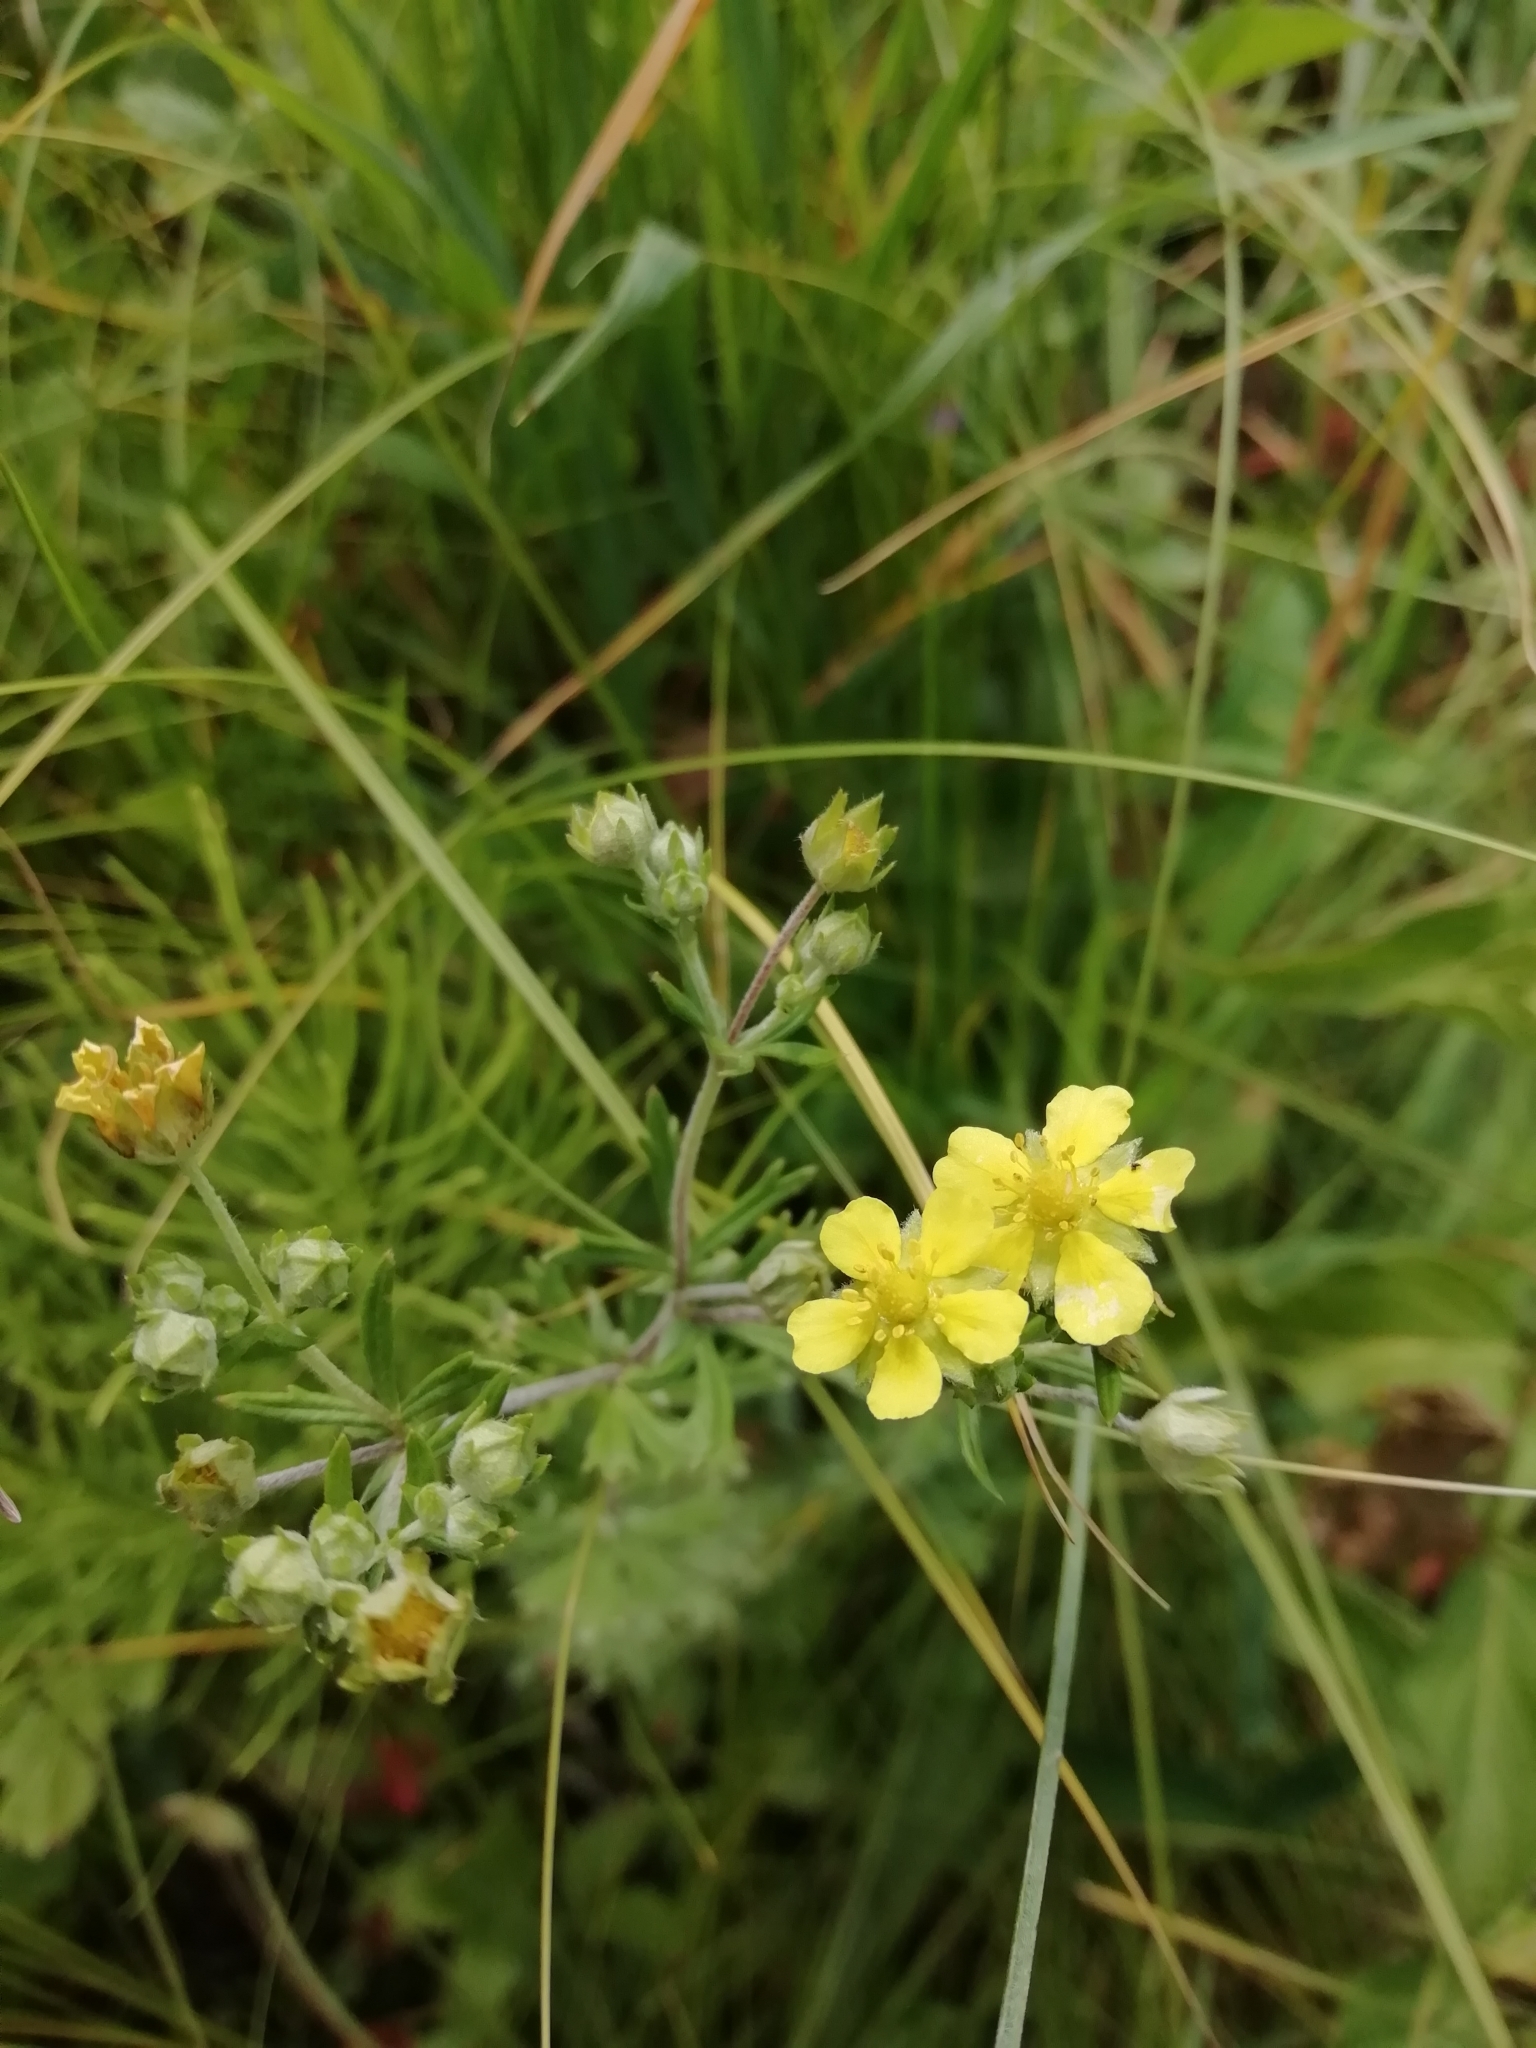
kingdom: Plantae
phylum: Tracheophyta
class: Magnoliopsida
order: Rosales
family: Rosaceae
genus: Potentilla
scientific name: Potentilla argentea
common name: Hoary cinquefoil
